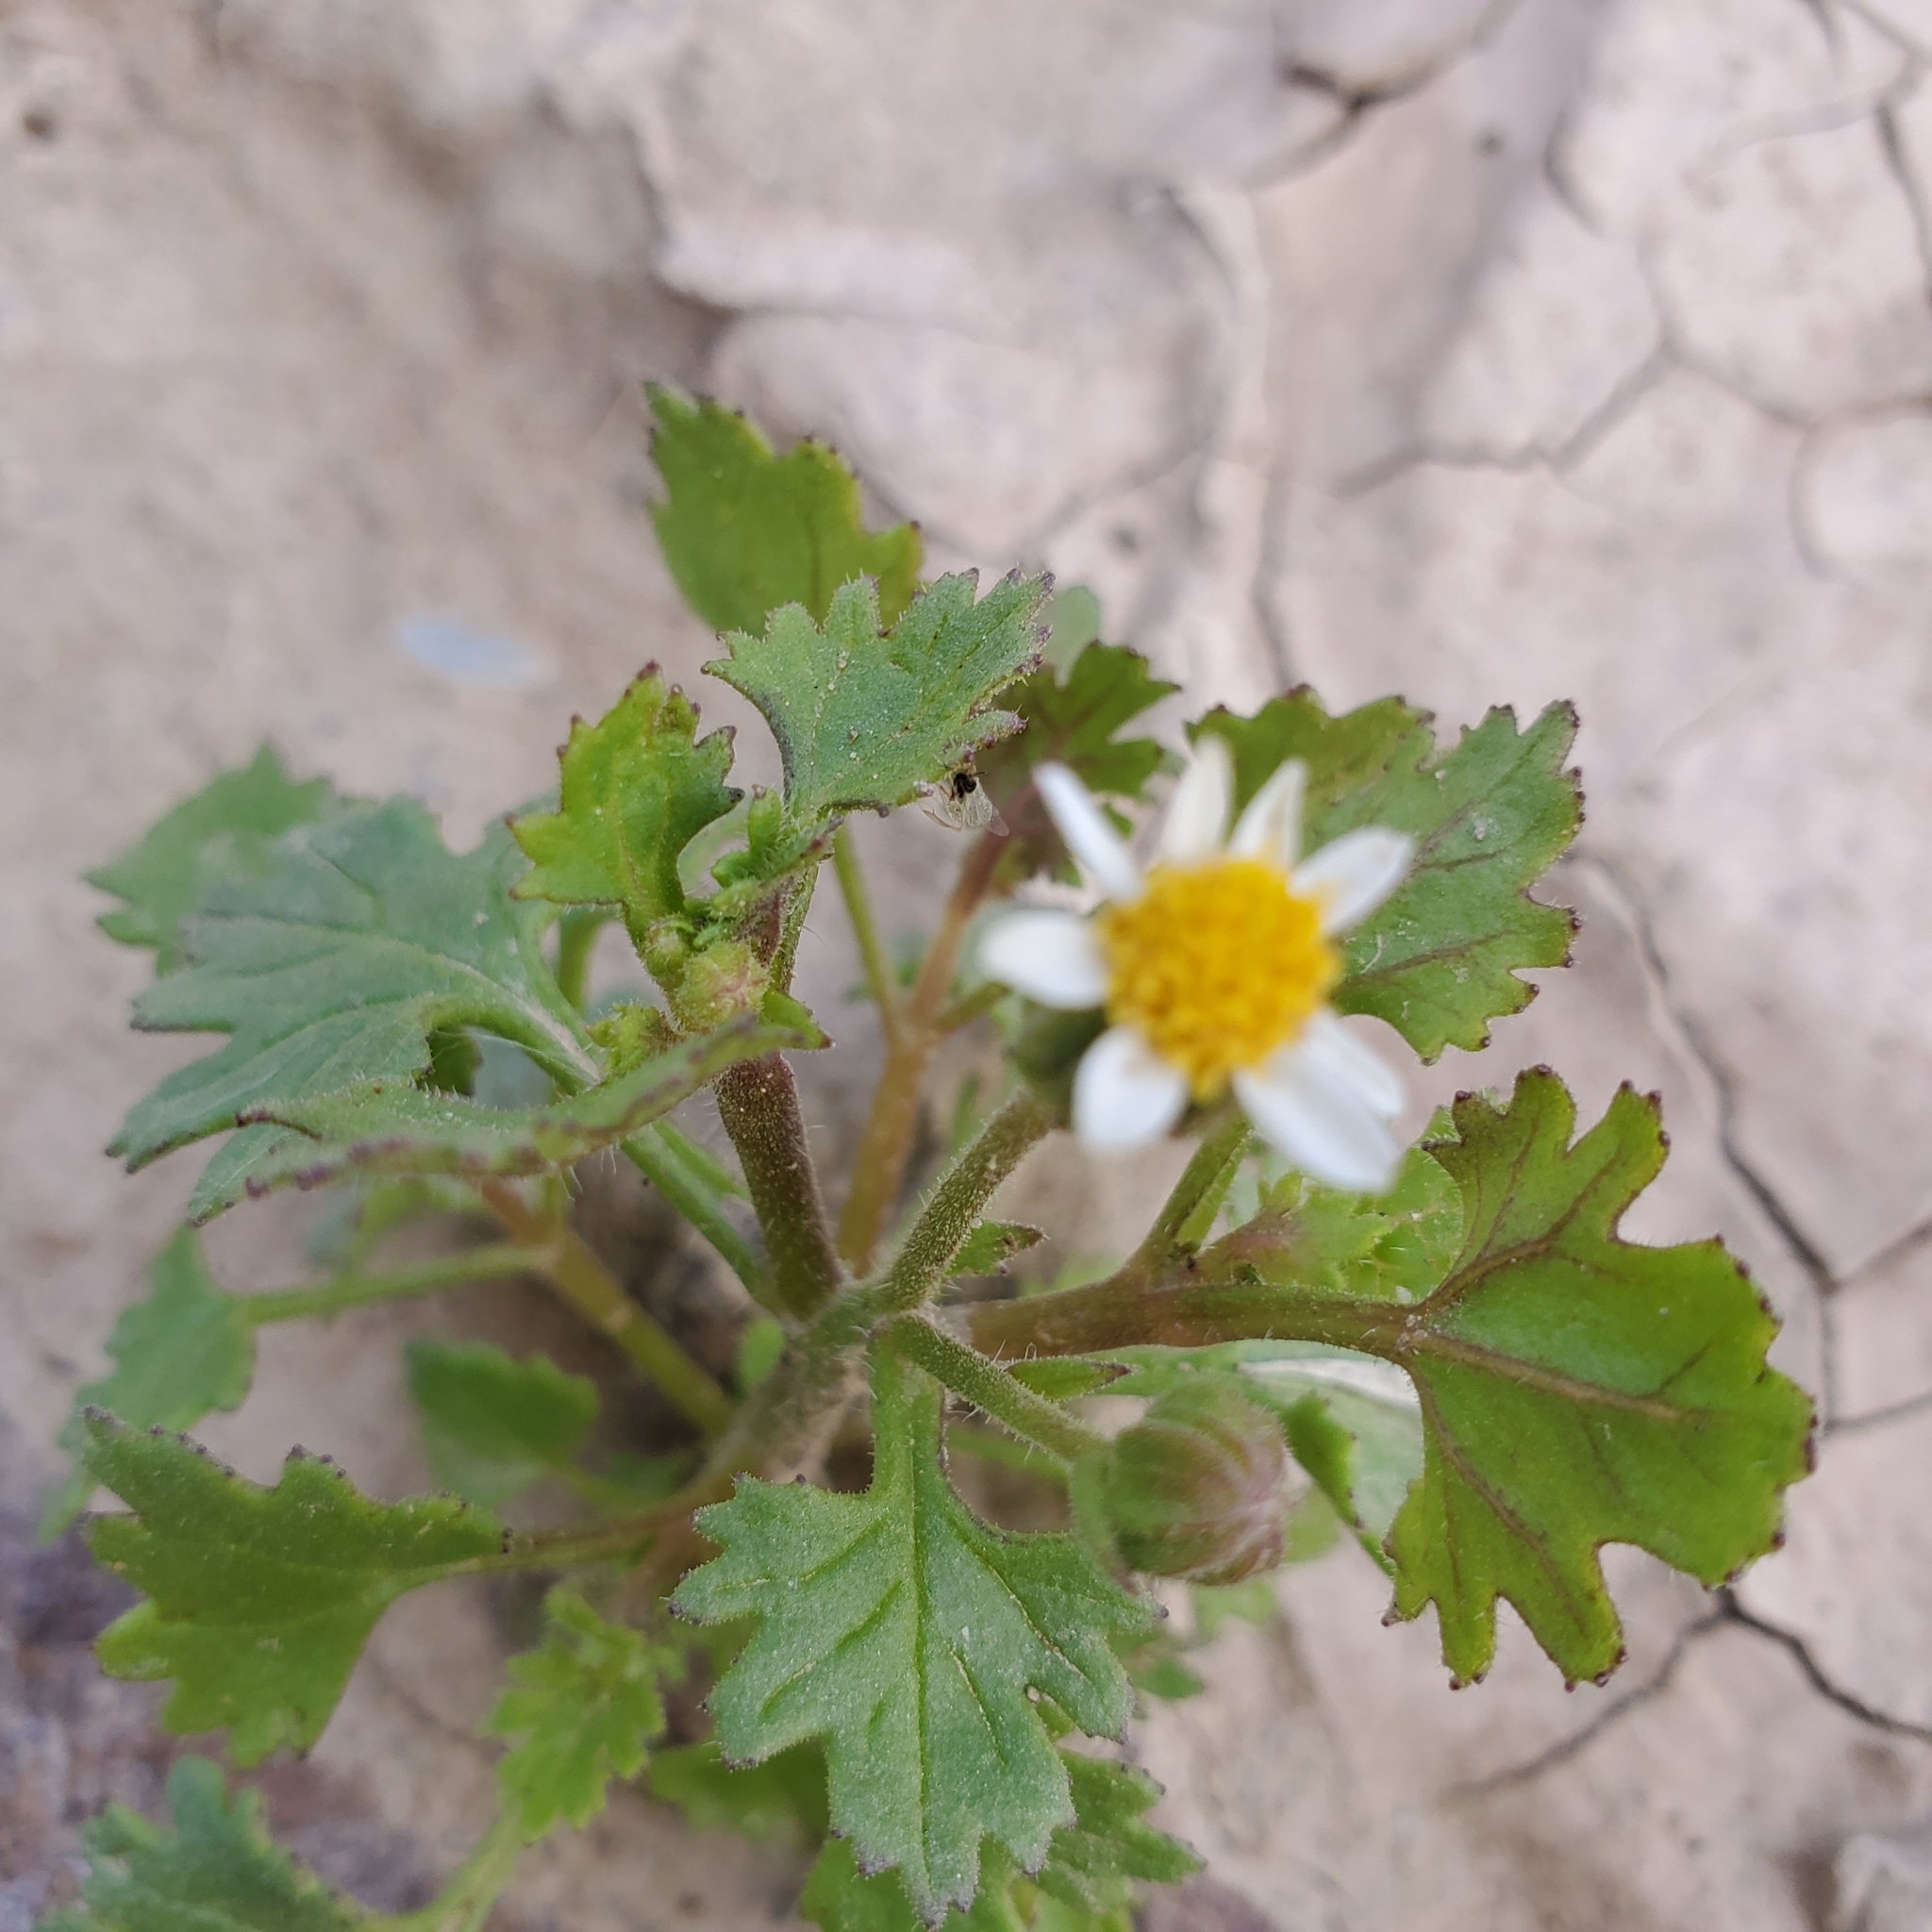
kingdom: Plantae
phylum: Tracheophyta
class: Magnoliopsida
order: Asterales
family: Asteraceae
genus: Laphamia
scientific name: Laphamia emoryi
